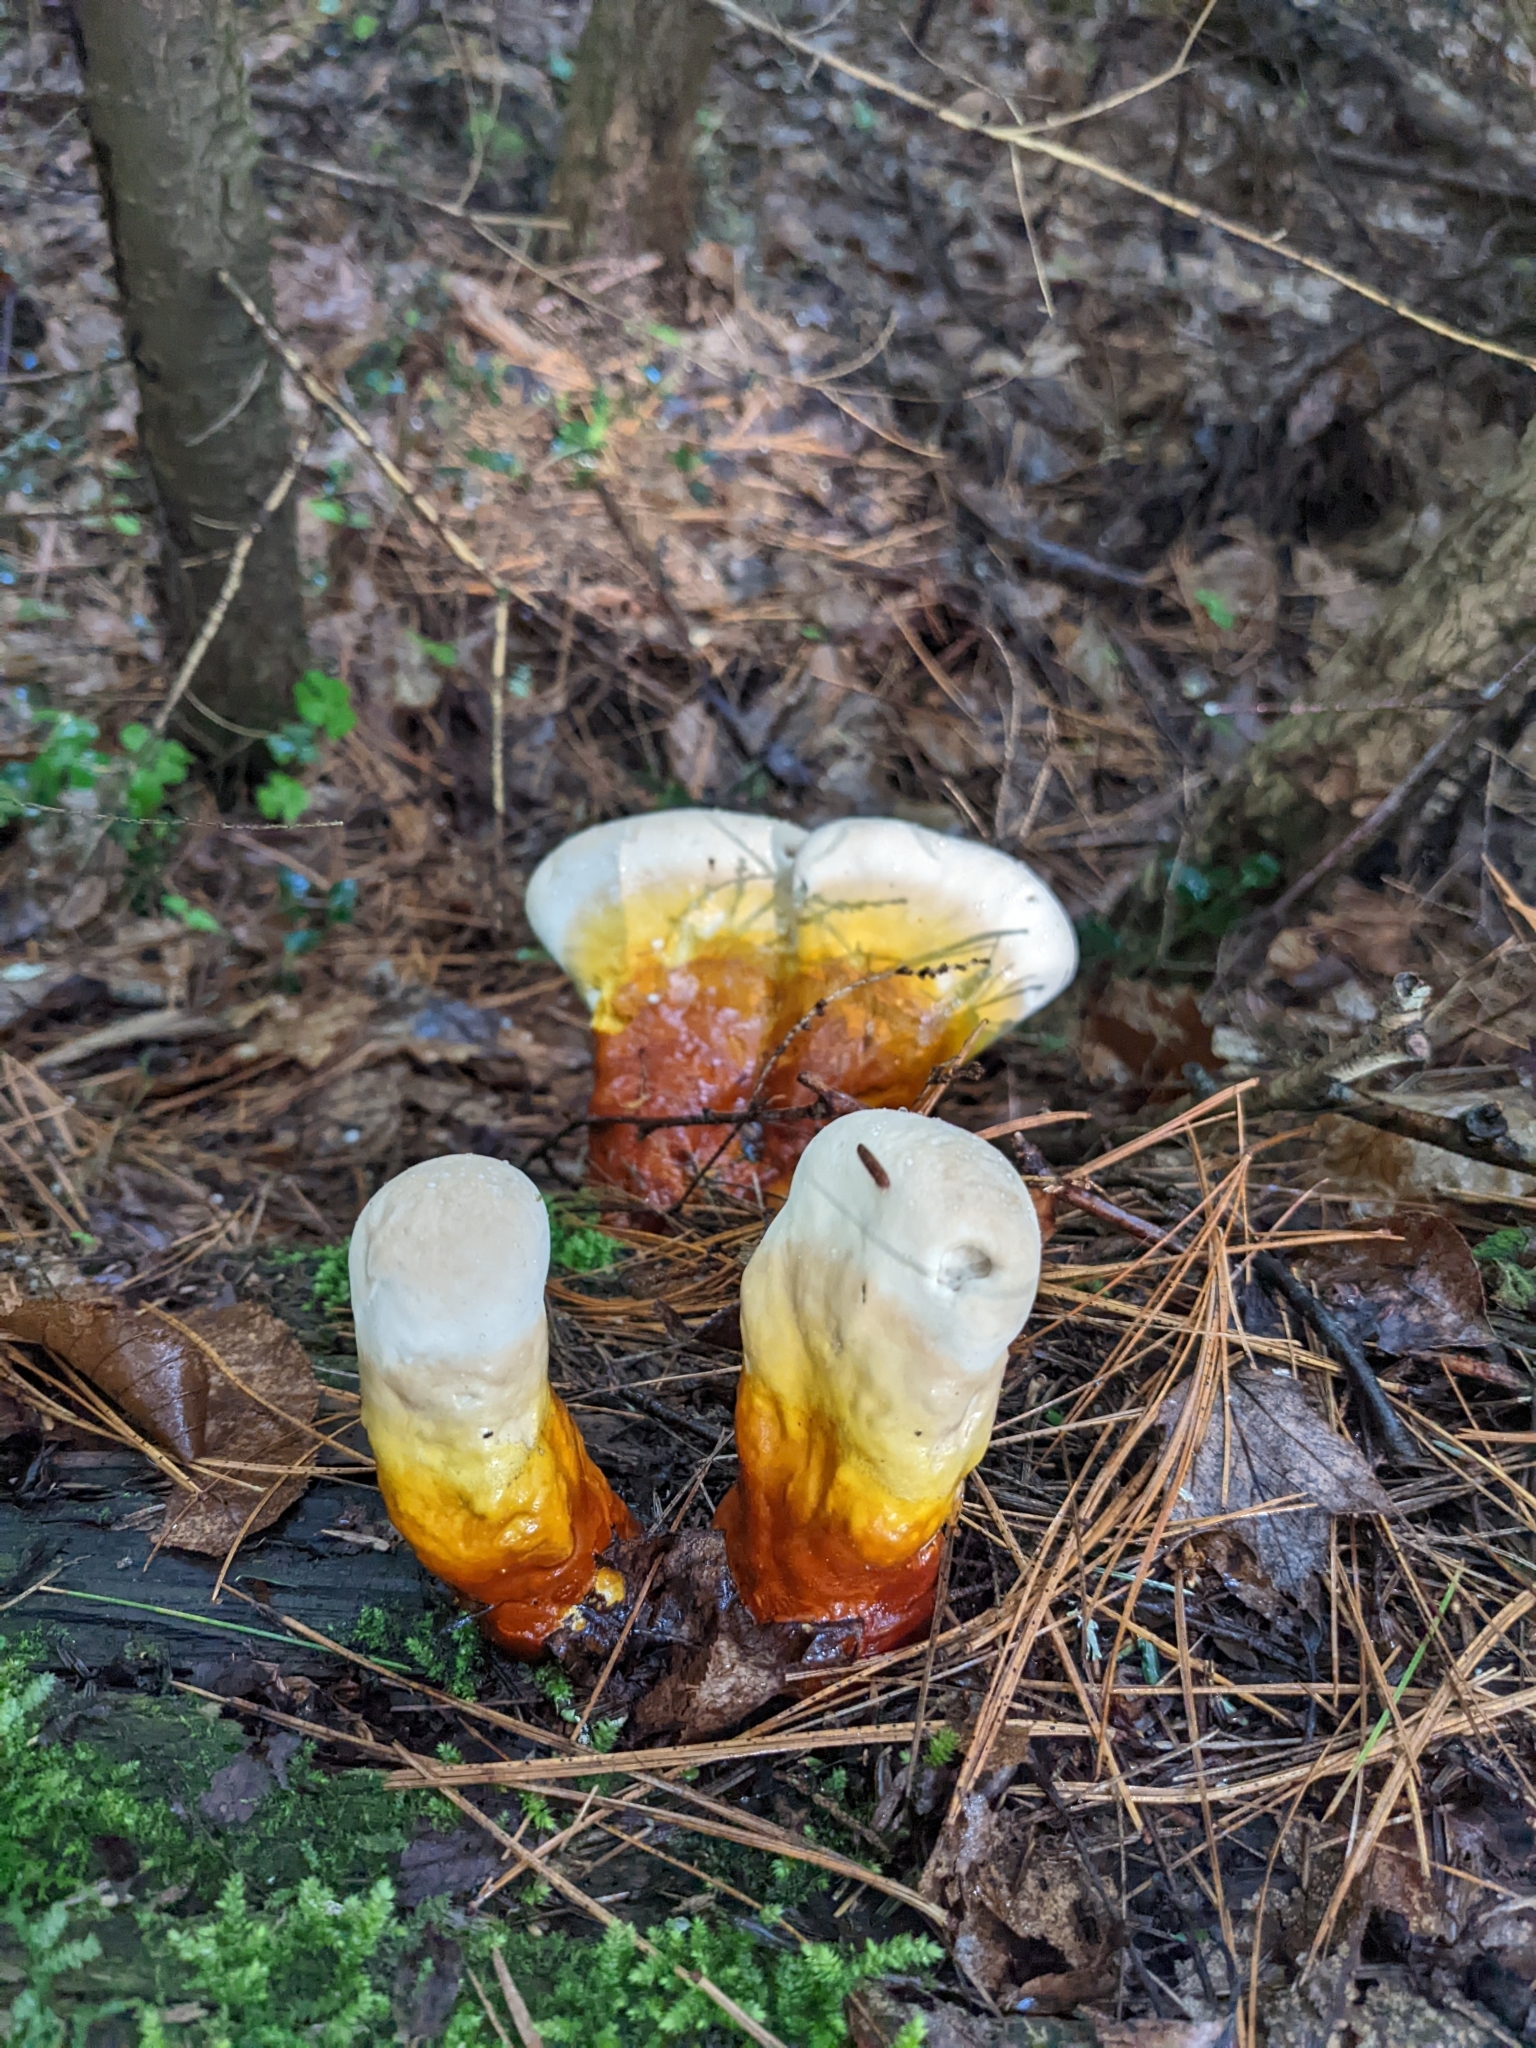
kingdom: Fungi
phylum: Basidiomycota
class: Agaricomycetes
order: Polyporales
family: Polyporaceae
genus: Ganoderma
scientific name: Ganoderma tsugae
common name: Hemlock varnish shelf
